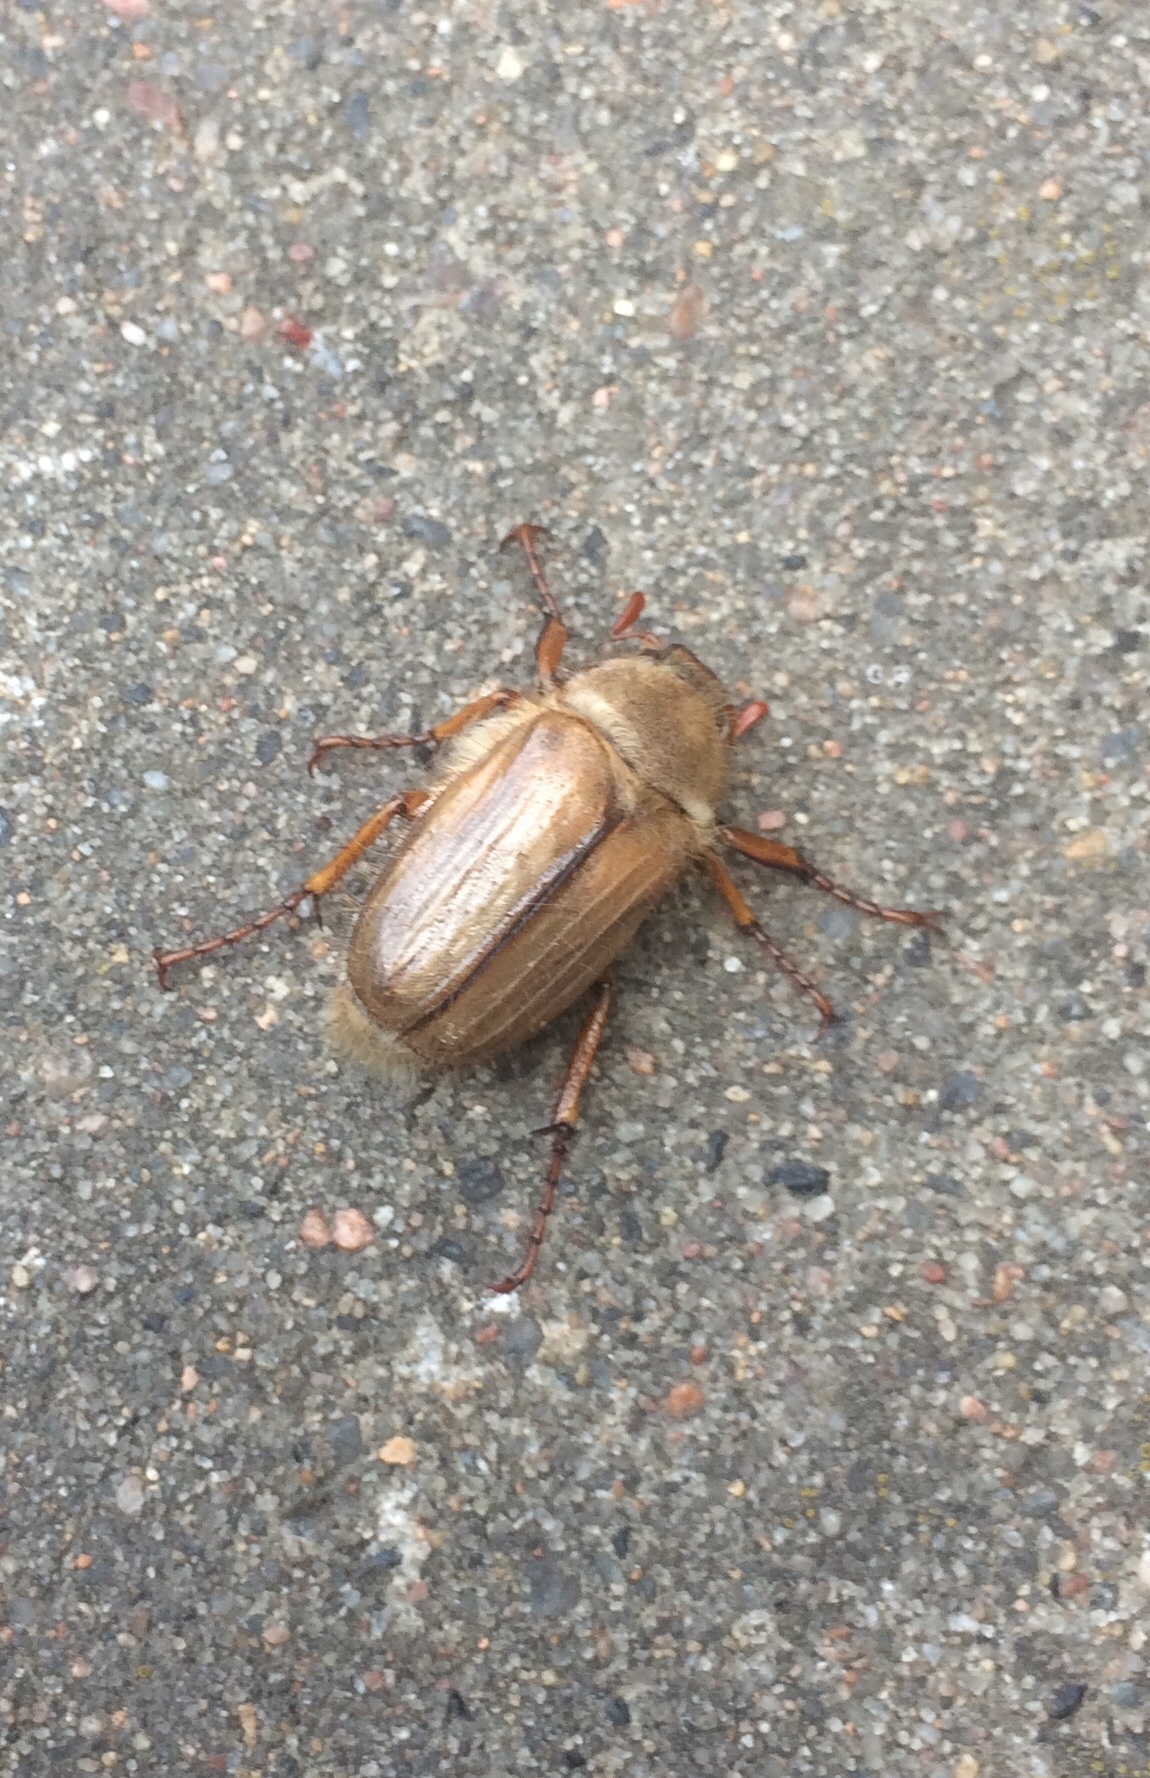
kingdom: Animalia
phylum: Arthropoda
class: Insecta
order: Coleoptera
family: Scarabaeidae
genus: Amphimallon
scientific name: Amphimallon solstitiale
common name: Summer chafer
